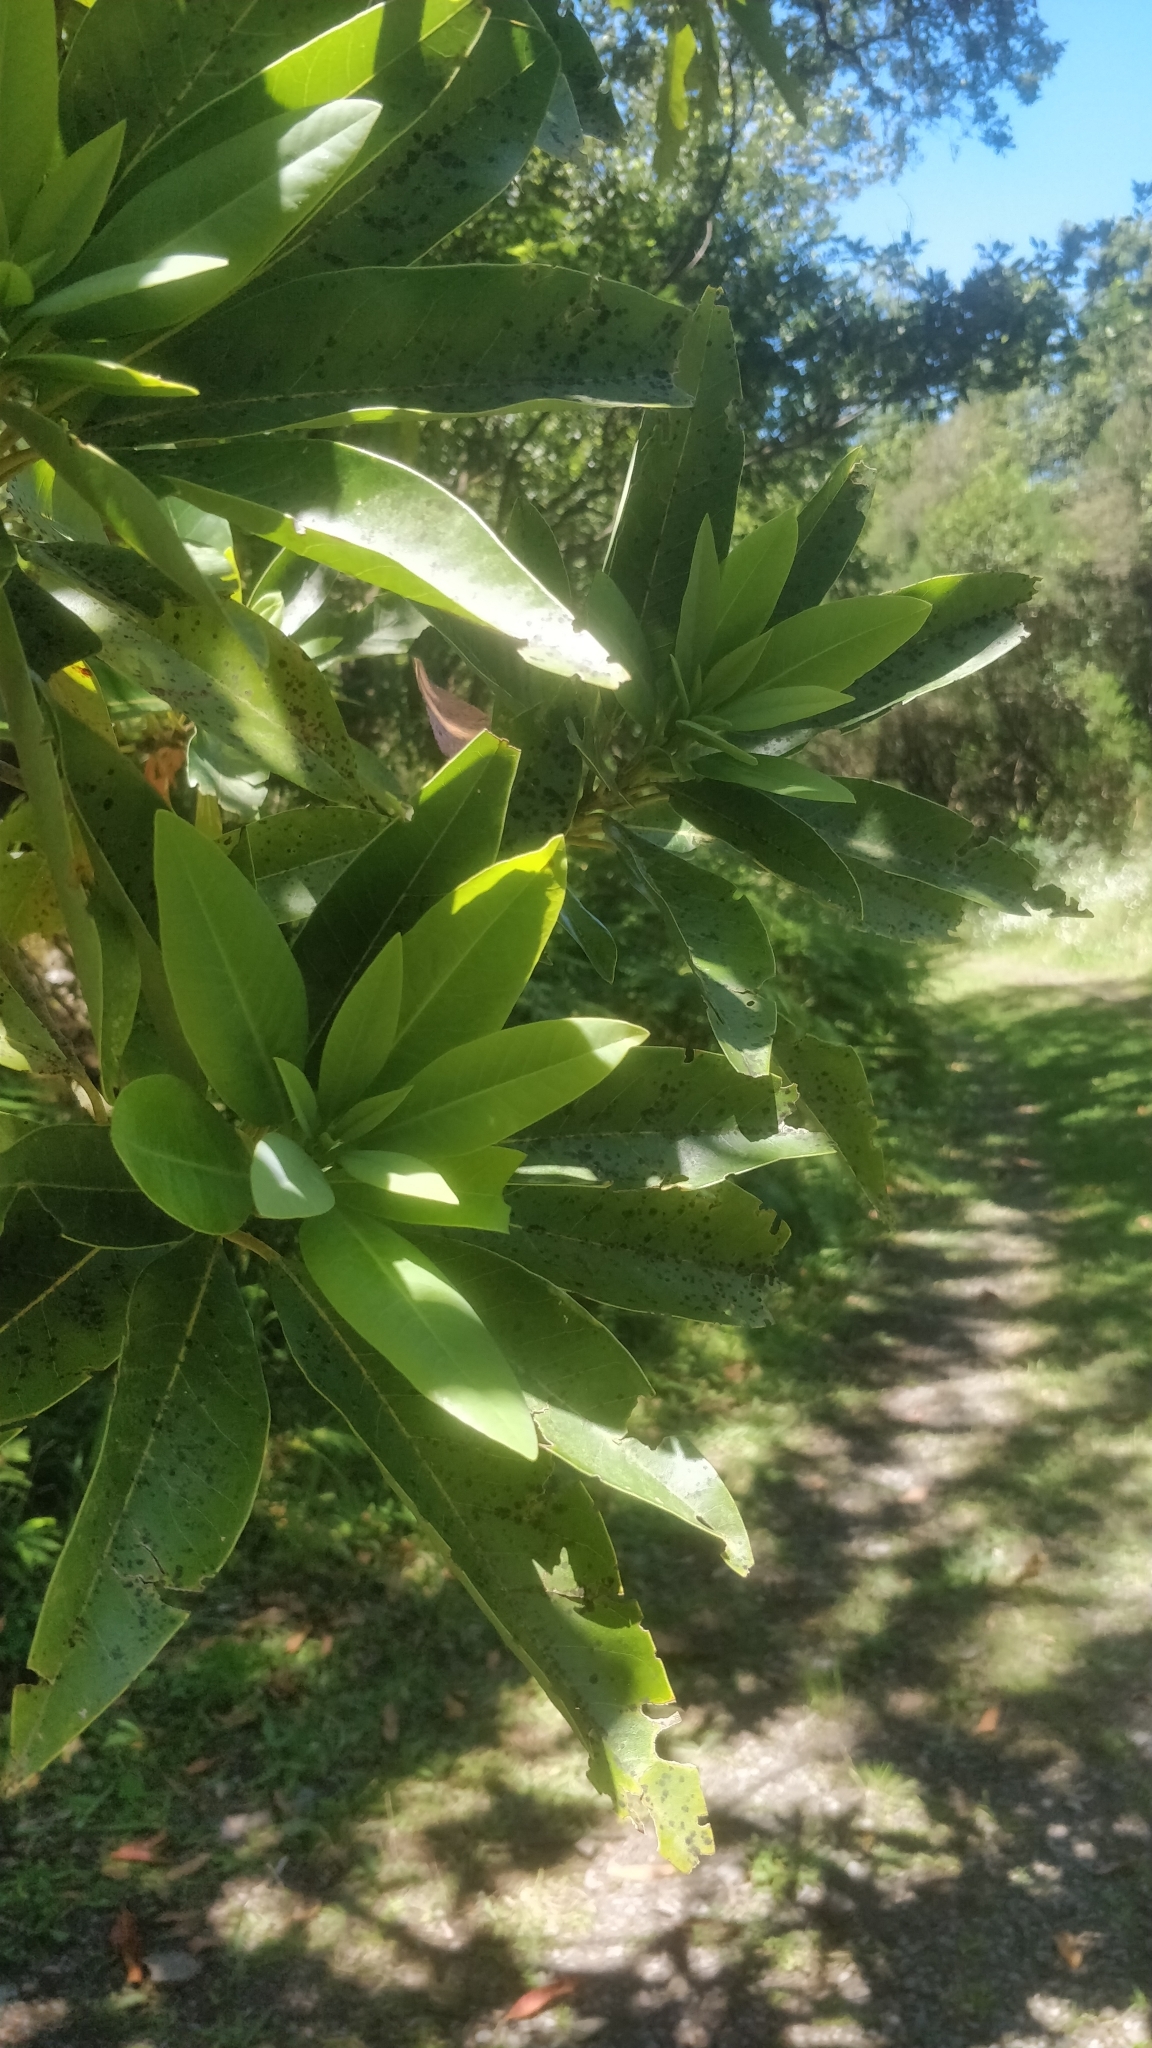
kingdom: Plantae
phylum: Tracheophyta
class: Magnoliopsida
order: Laurales
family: Lauraceae
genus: Persea
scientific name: Persea indica
